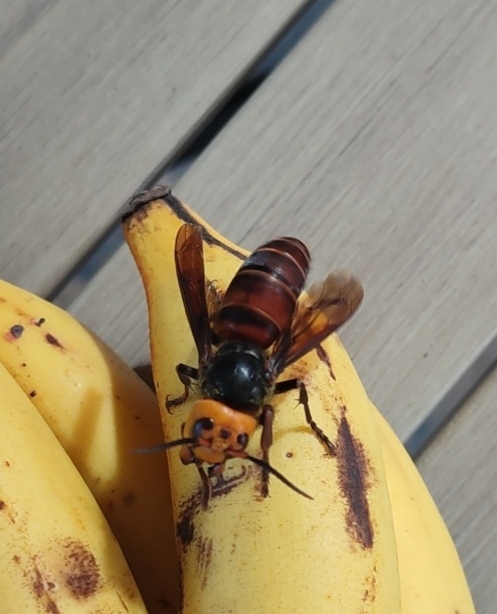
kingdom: Animalia
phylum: Arthropoda
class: Insecta
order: Hymenoptera
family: Vespidae
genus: Vespa
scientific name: Vespa mandarinia
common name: Asian giant hornet
